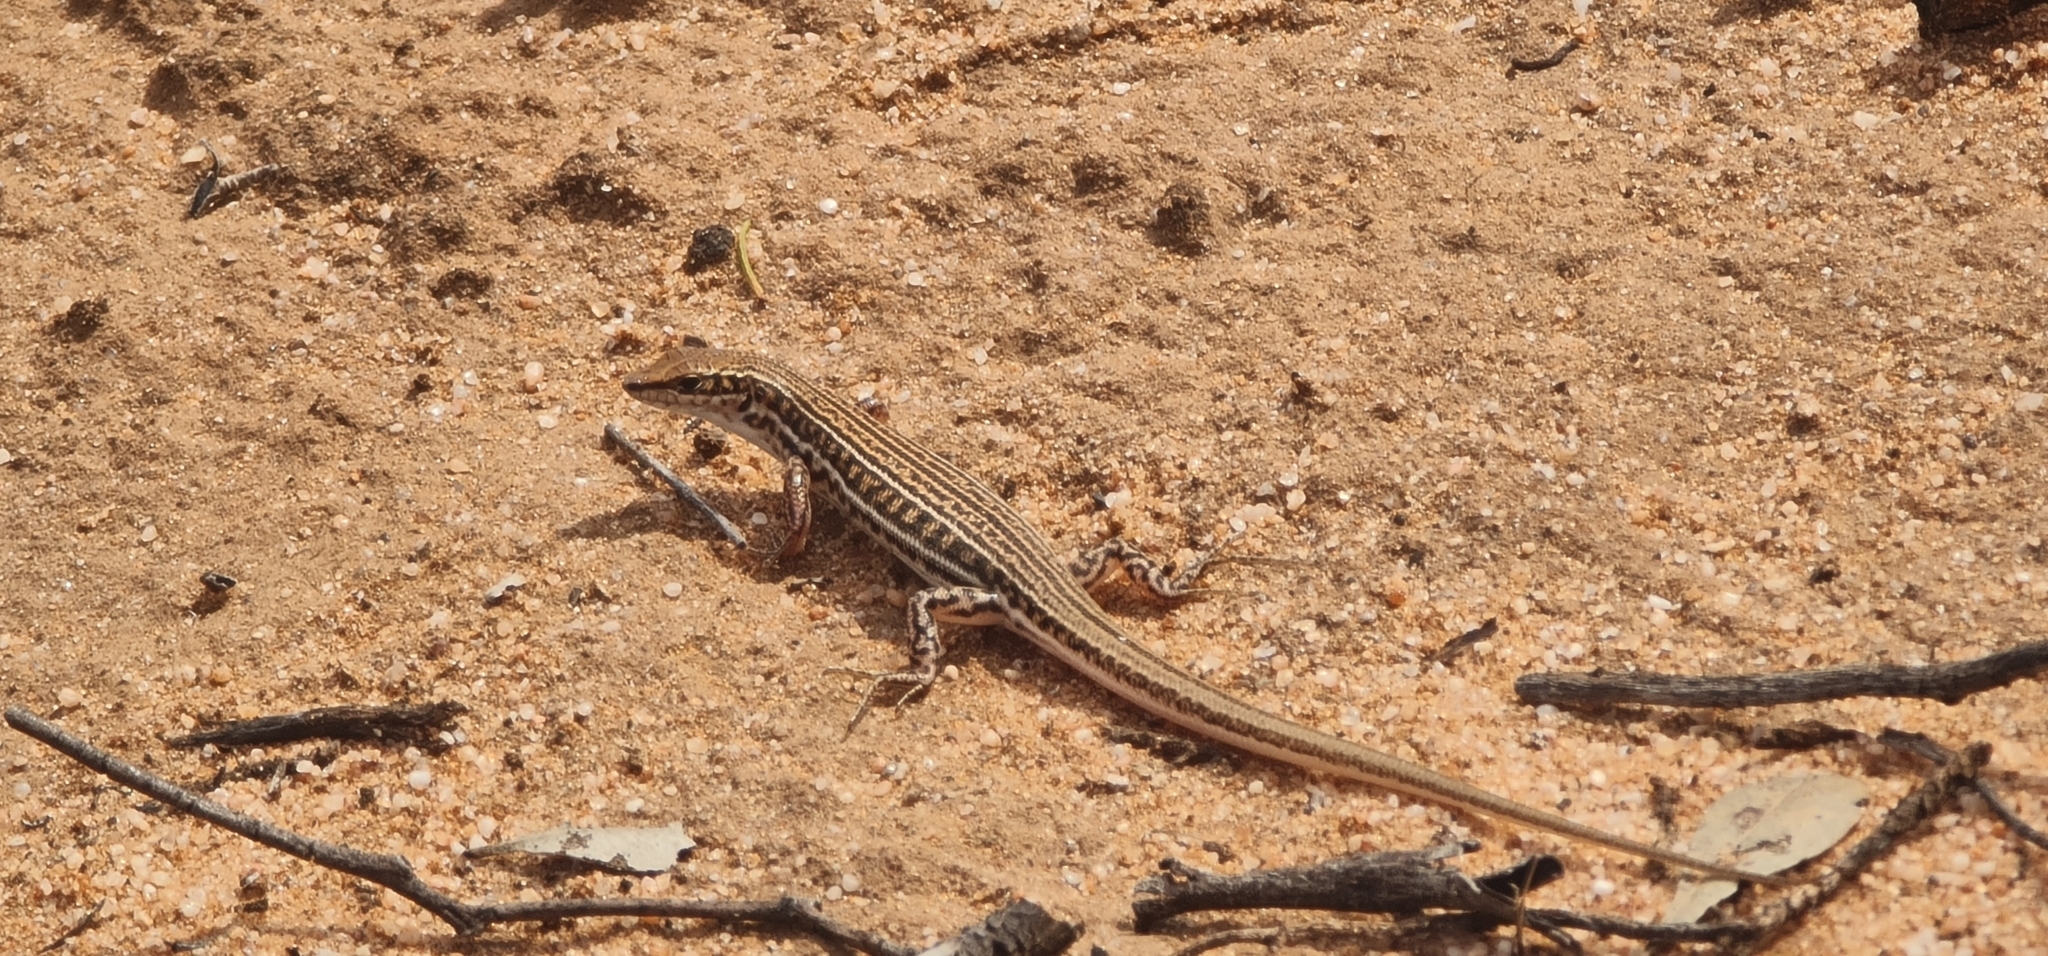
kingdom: Animalia
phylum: Chordata
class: Squamata
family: Scincidae
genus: Ctenotus
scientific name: Ctenotus schomburgkii
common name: Barred wedge-snout ctenotus
